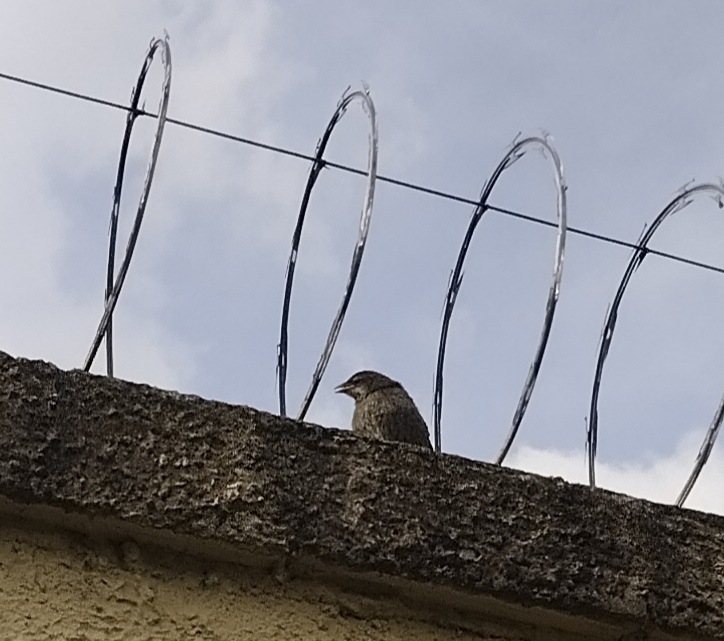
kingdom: Animalia
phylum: Chordata
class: Aves
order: Passeriformes
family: Icteridae
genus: Molothrus
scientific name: Molothrus bonariensis
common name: Shiny cowbird
